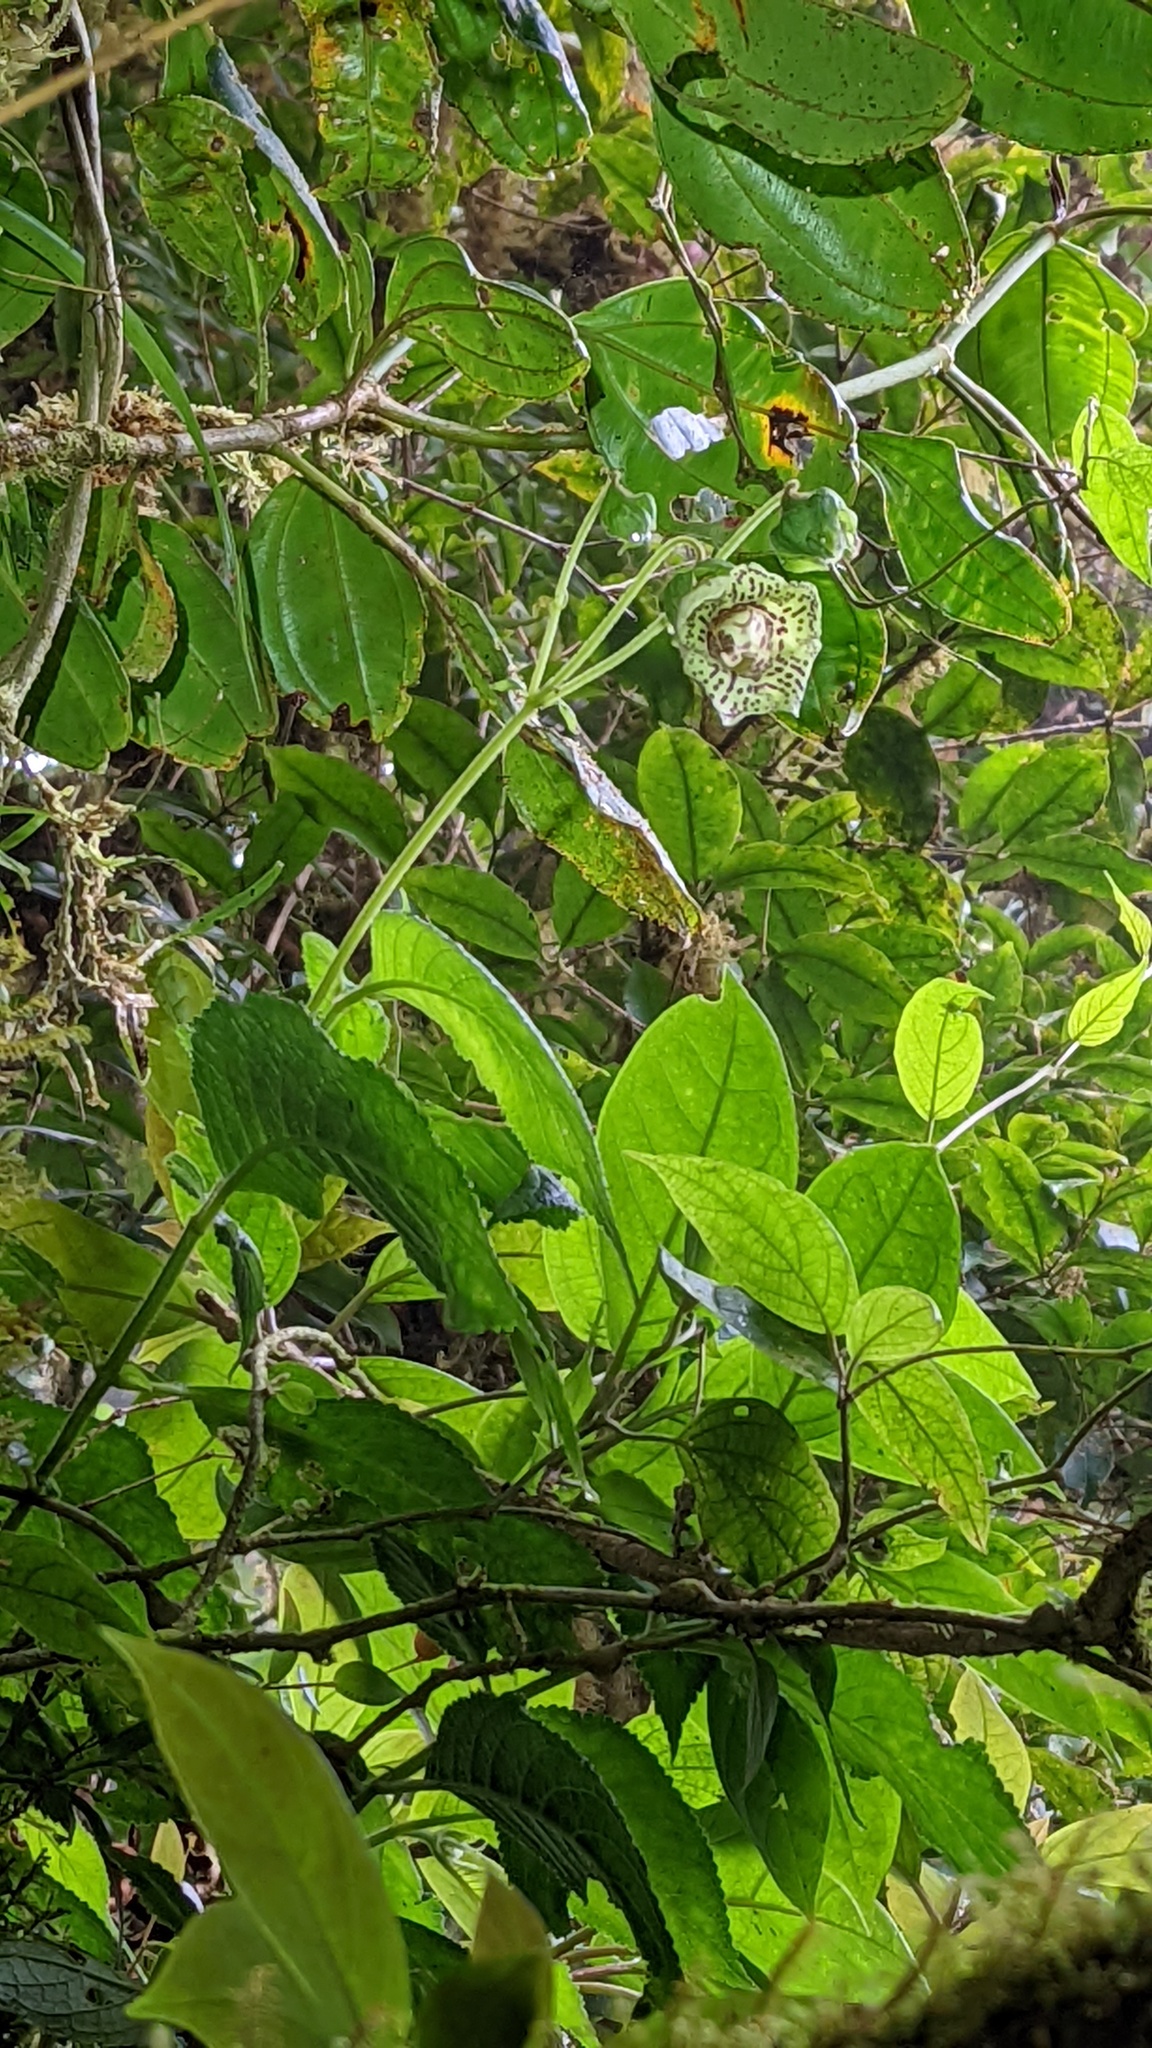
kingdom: Plantae
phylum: Tracheophyta
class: Magnoliopsida
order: Lamiales
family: Gesneriaceae
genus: Kohleria
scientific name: Kohleria tigridia
